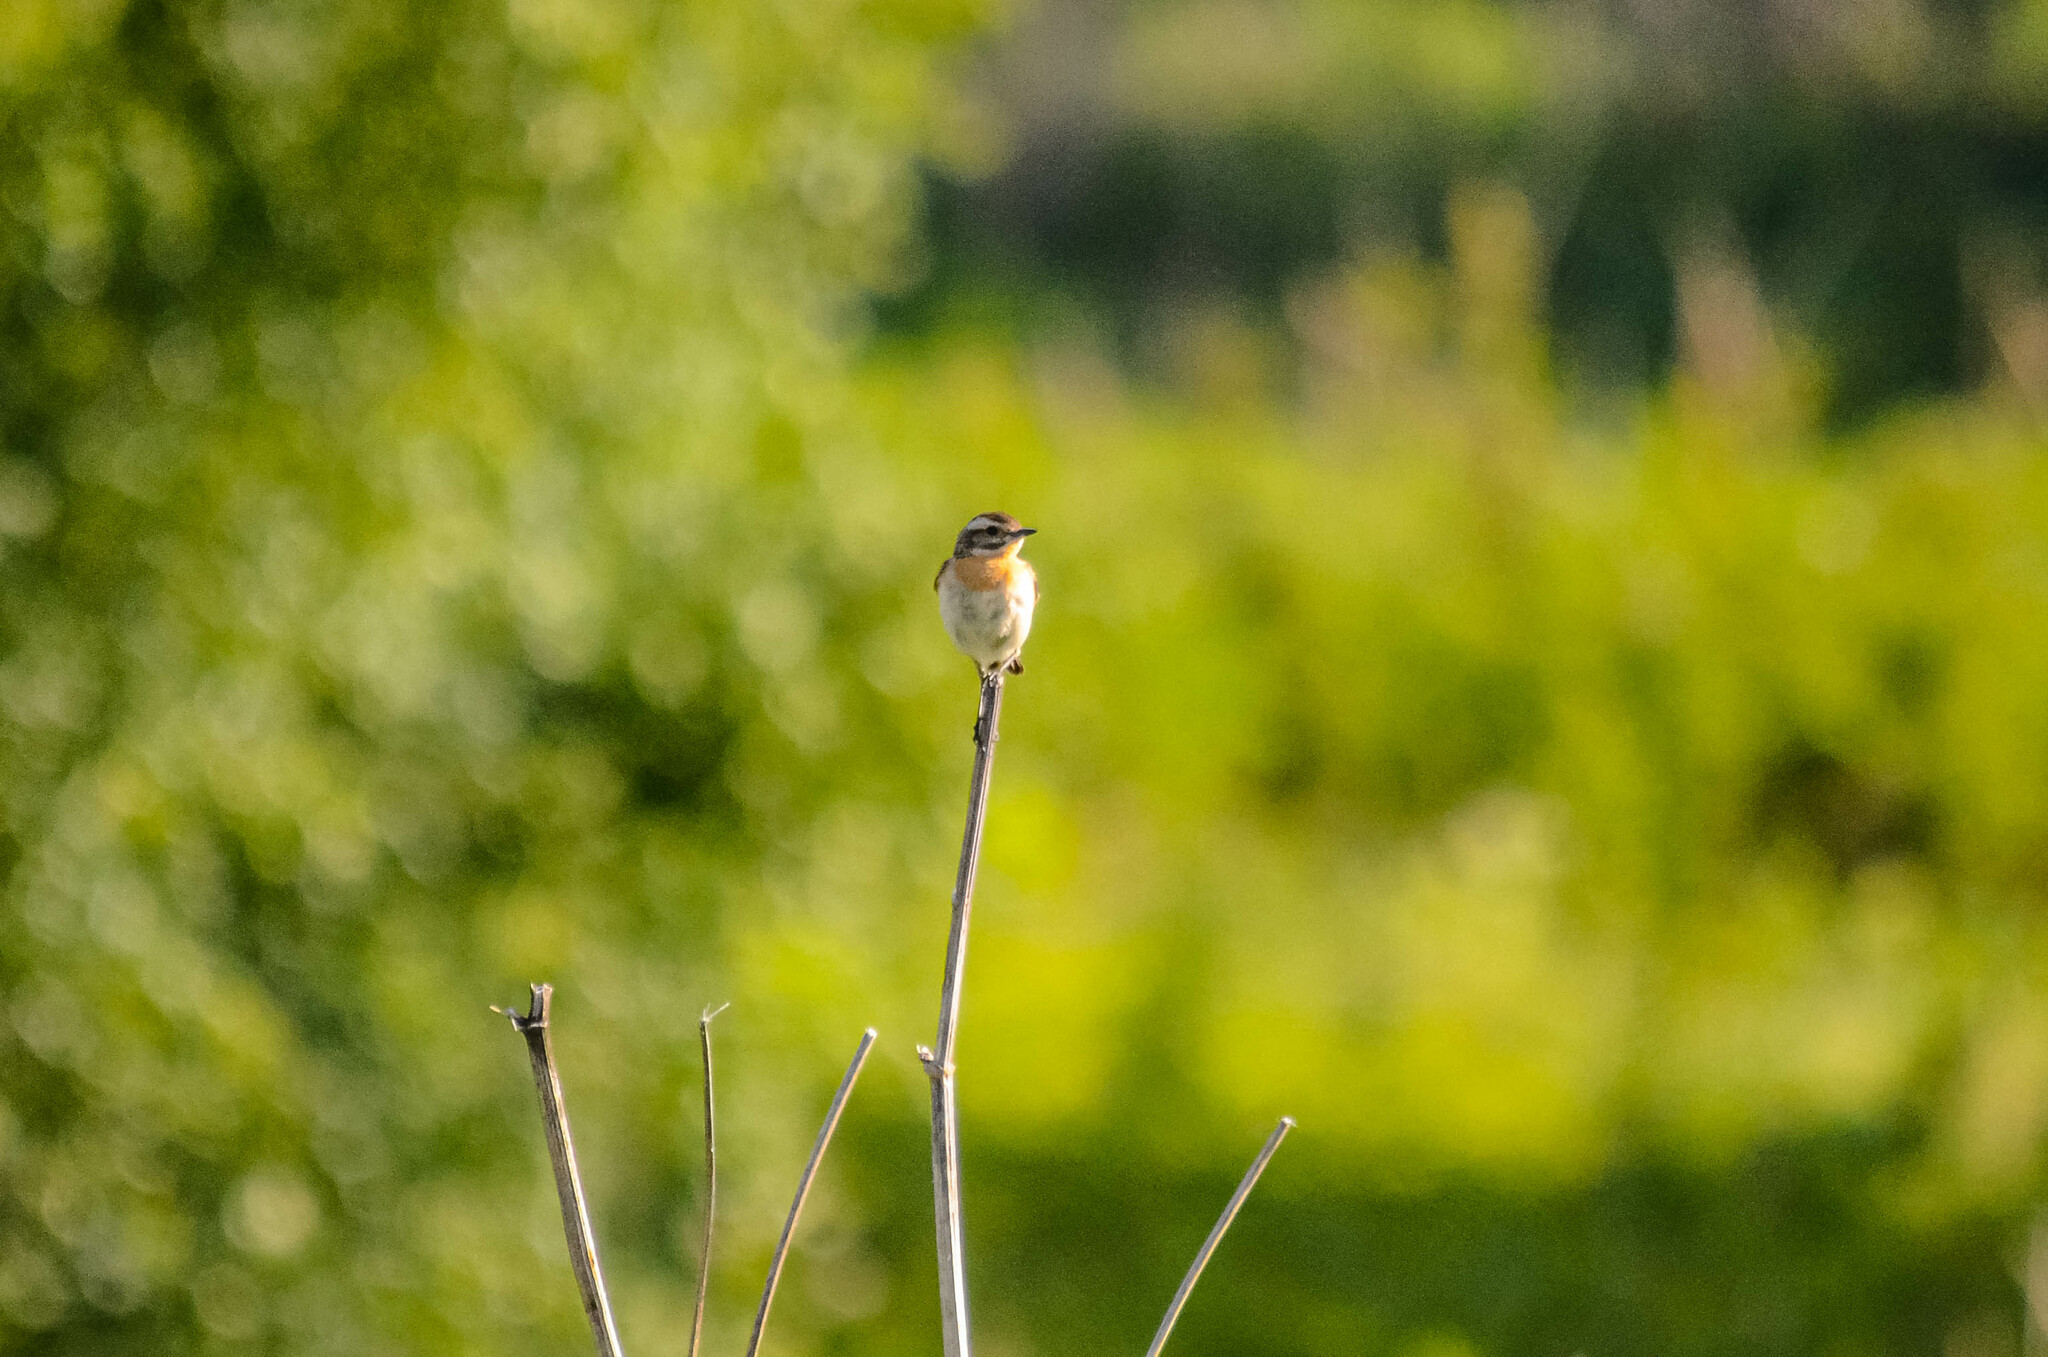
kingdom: Animalia
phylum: Chordata
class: Aves
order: Passeriformes
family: Muscicapidae
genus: Saxicola
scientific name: Saxicola rubetra
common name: Whinchat
